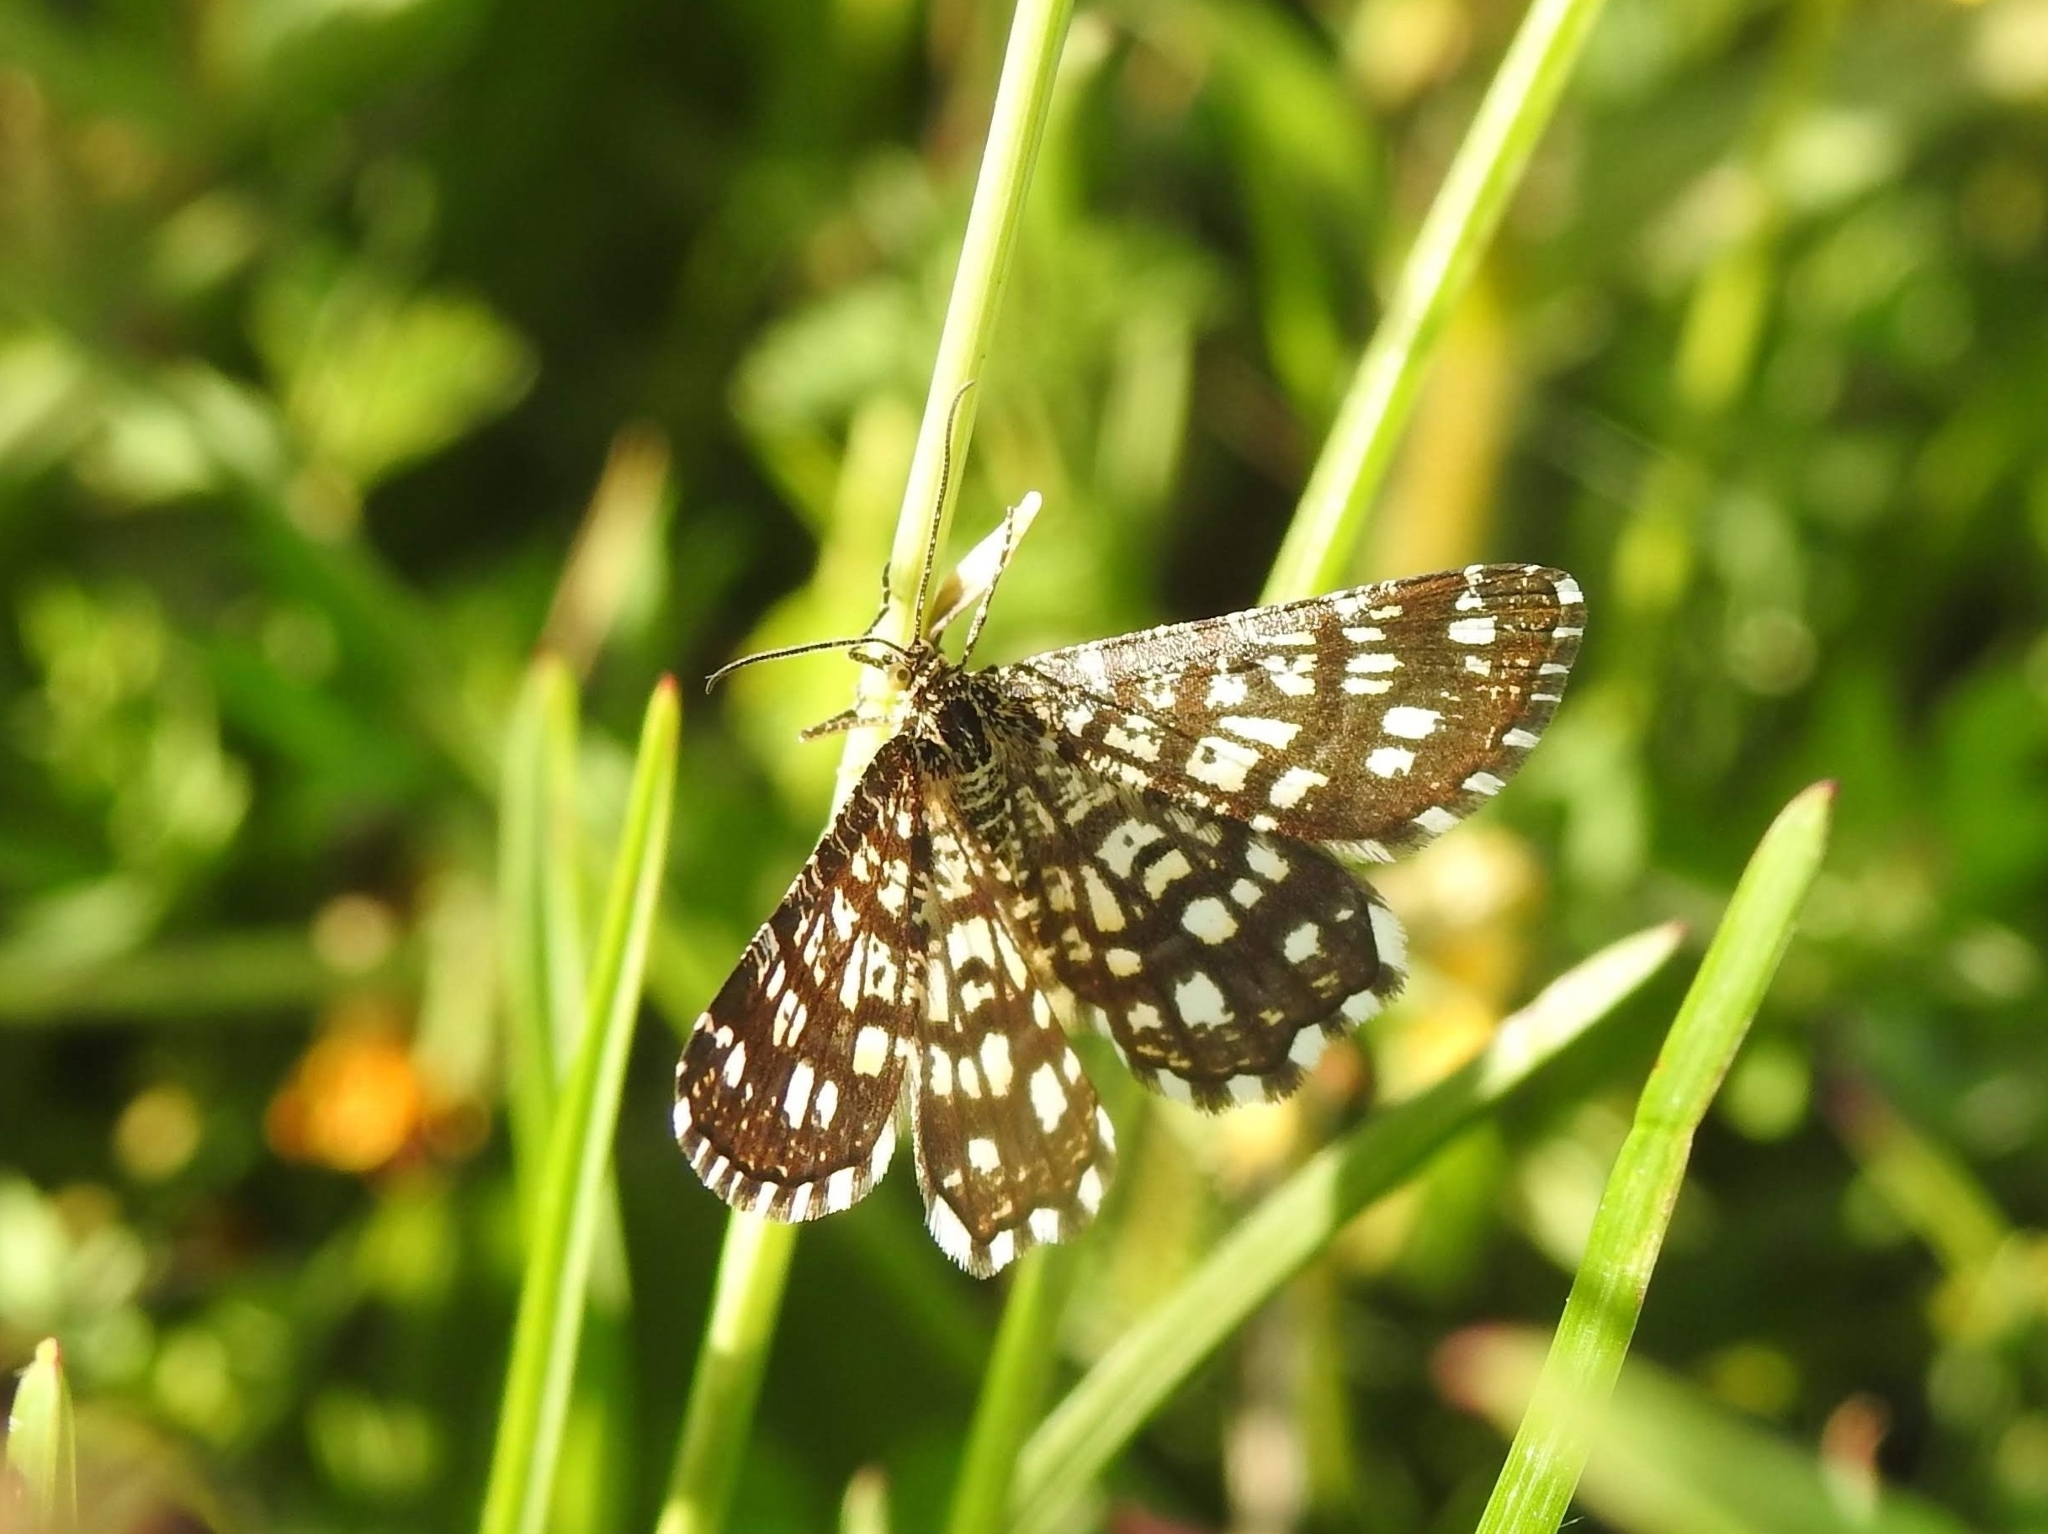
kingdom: Animalia
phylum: Arthropoda
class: Insecta
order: Lepidoptera
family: Geometridae
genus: Chiasmia
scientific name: Chiasmia clathrata
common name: Latticed heath
